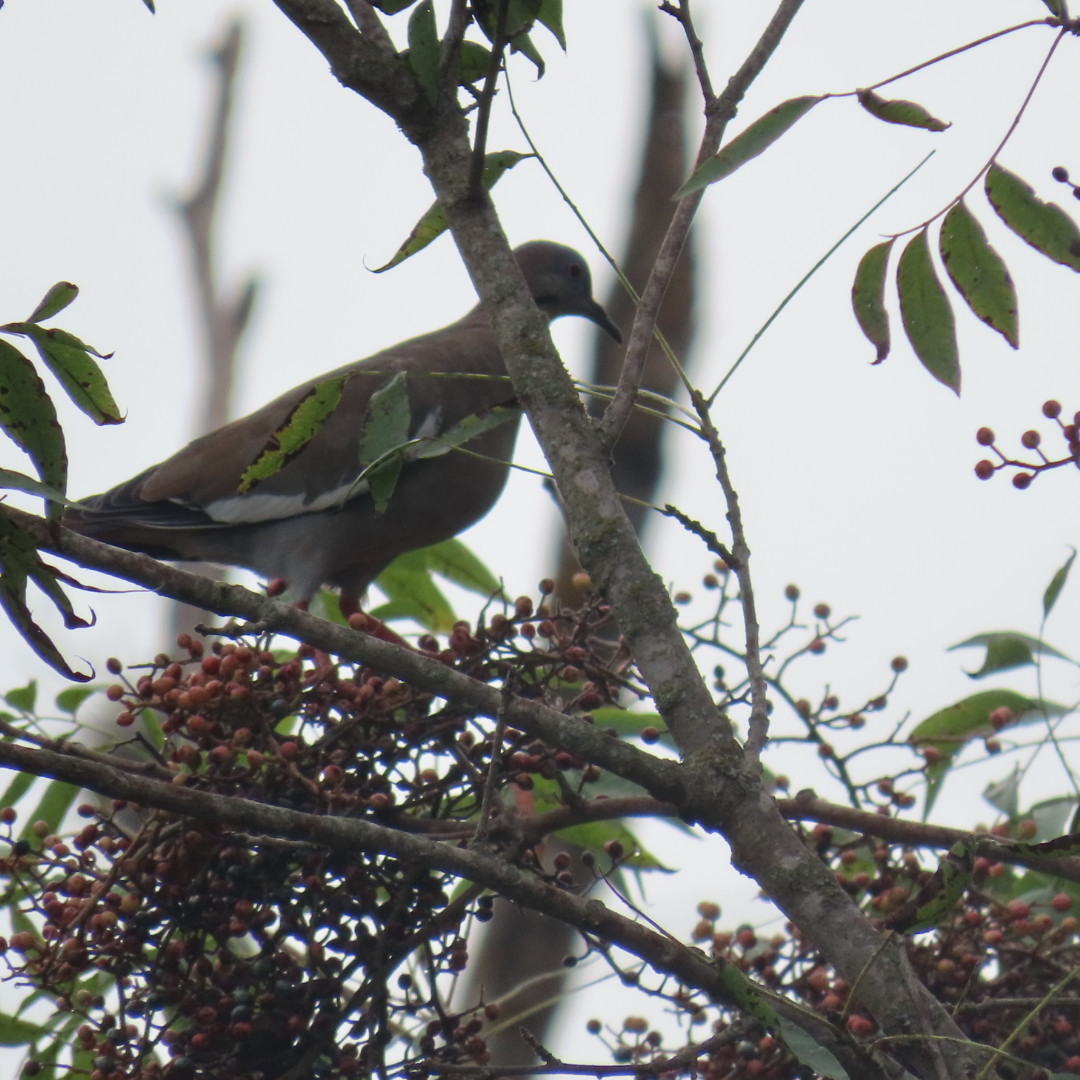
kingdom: Animalia
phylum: Chordata
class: Aves
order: Columbiformes
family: Columbidae
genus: Zenaida
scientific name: Zenaida asiatica
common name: White-winged dove
